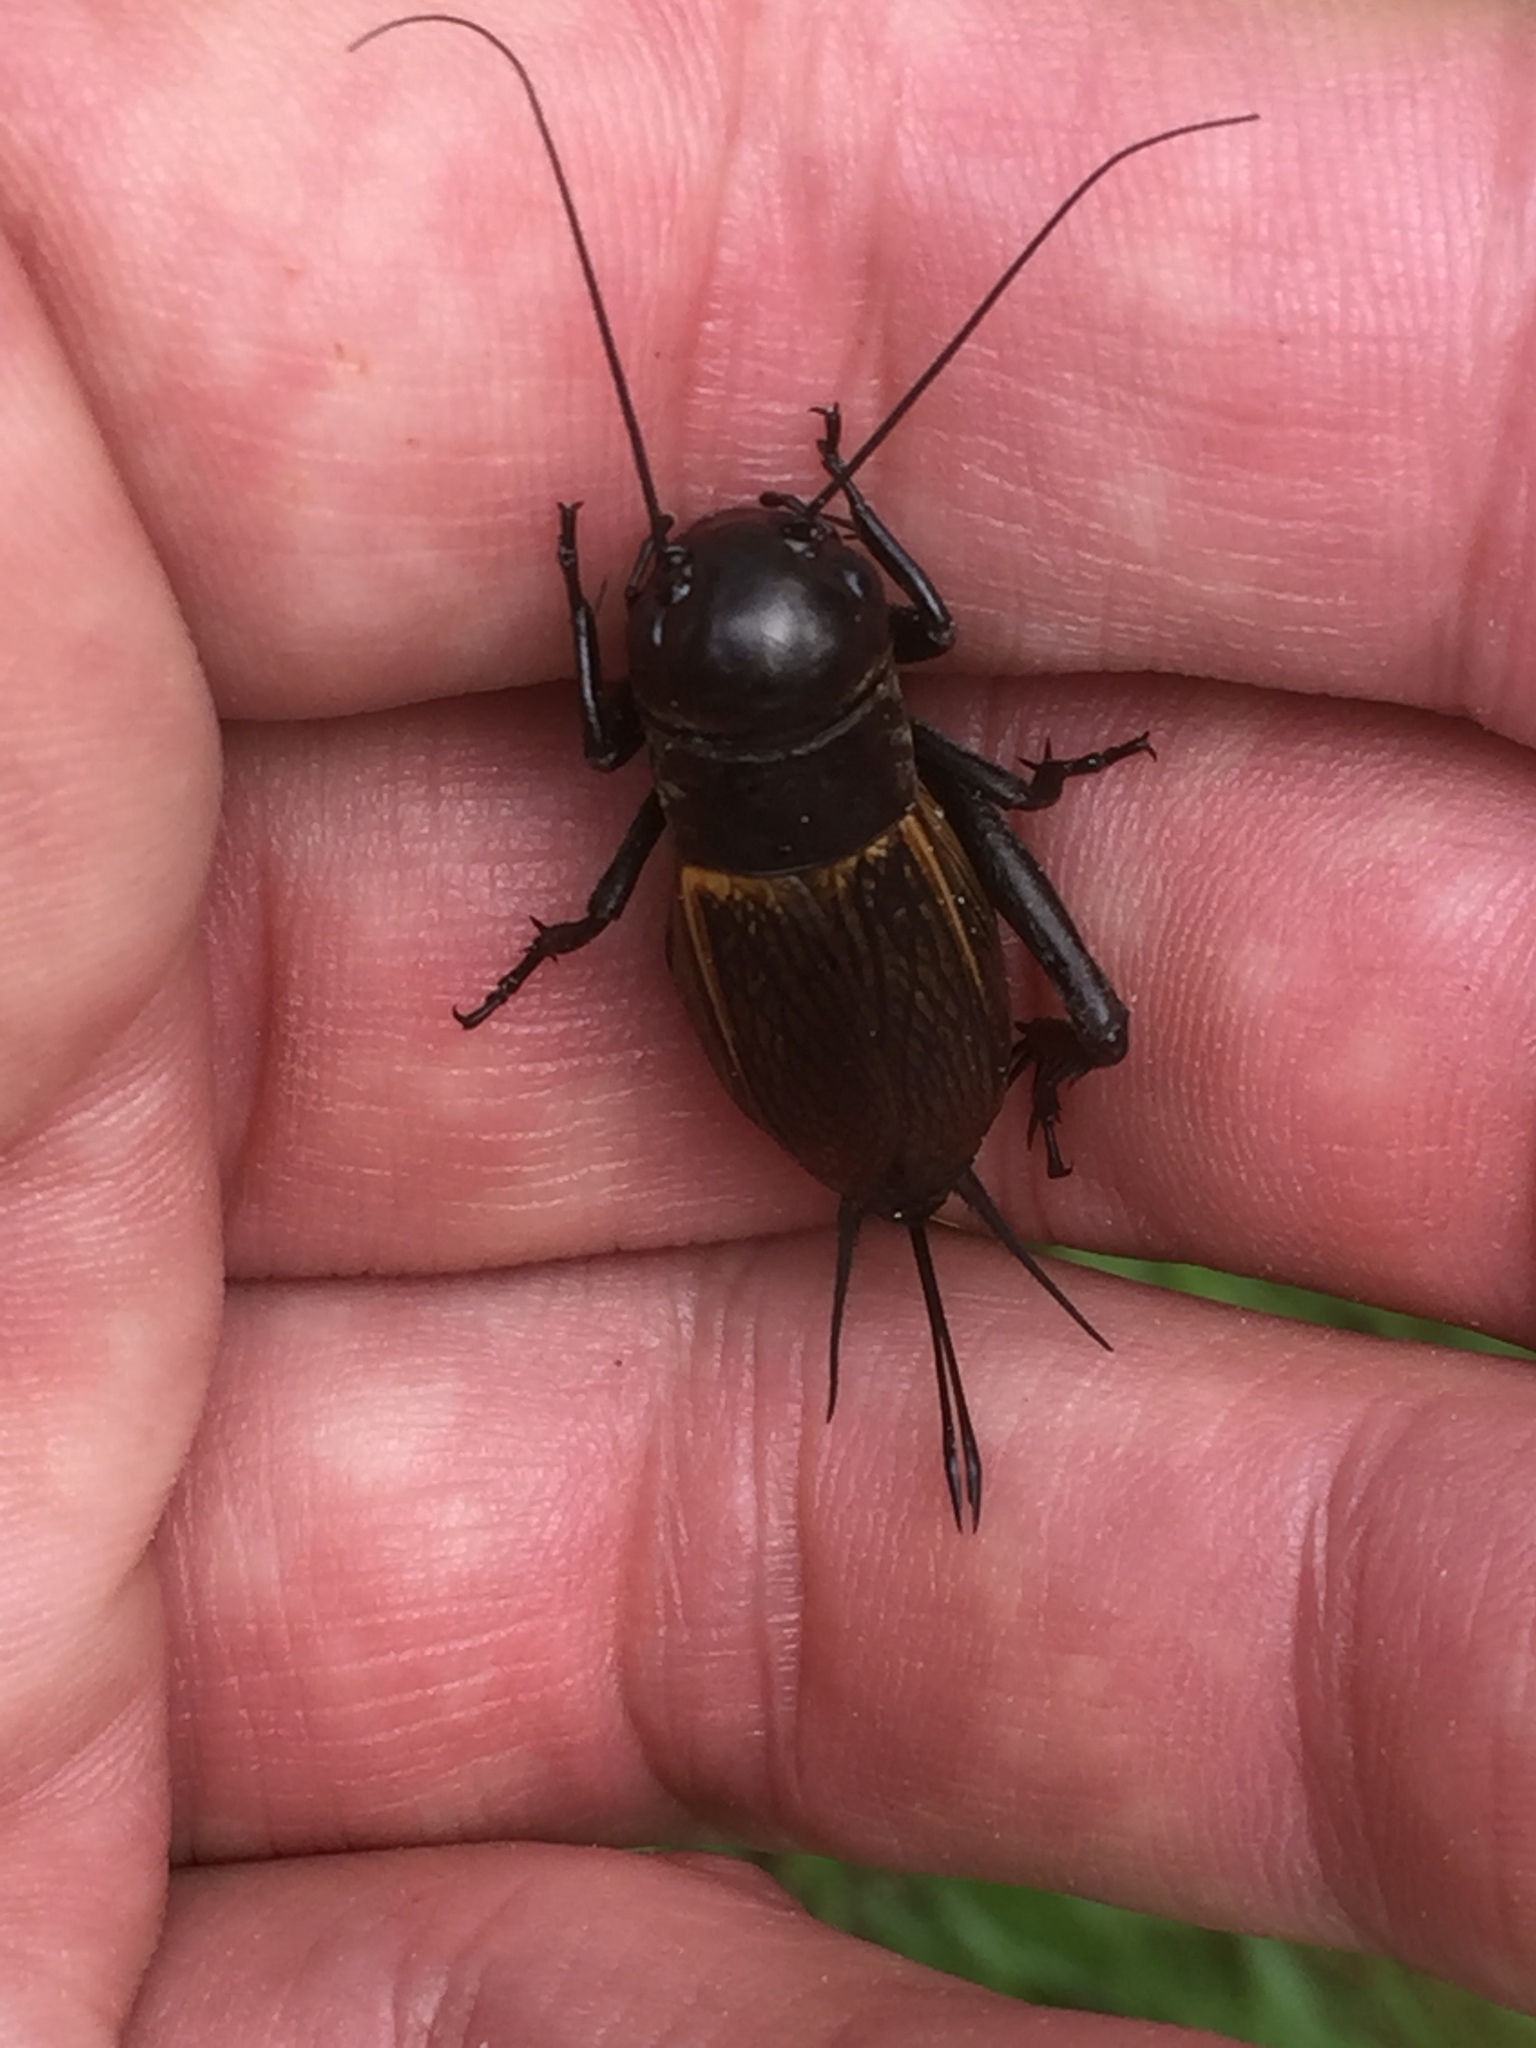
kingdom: Animalia
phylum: Arthropoda
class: Insecta
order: Orthoptera
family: Gryllidae
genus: Gryllus
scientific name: Gryllus campestris
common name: Field cricket
